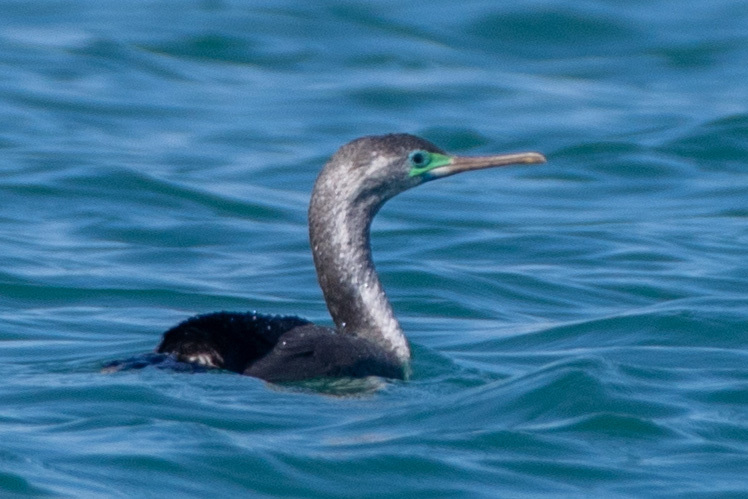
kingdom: Animalia
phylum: Chordata
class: Aves
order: Suliformes
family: Phalacrocoracidae
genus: Phalacrocorax
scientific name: Phalacrocorax punctatus
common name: Spotted shag
